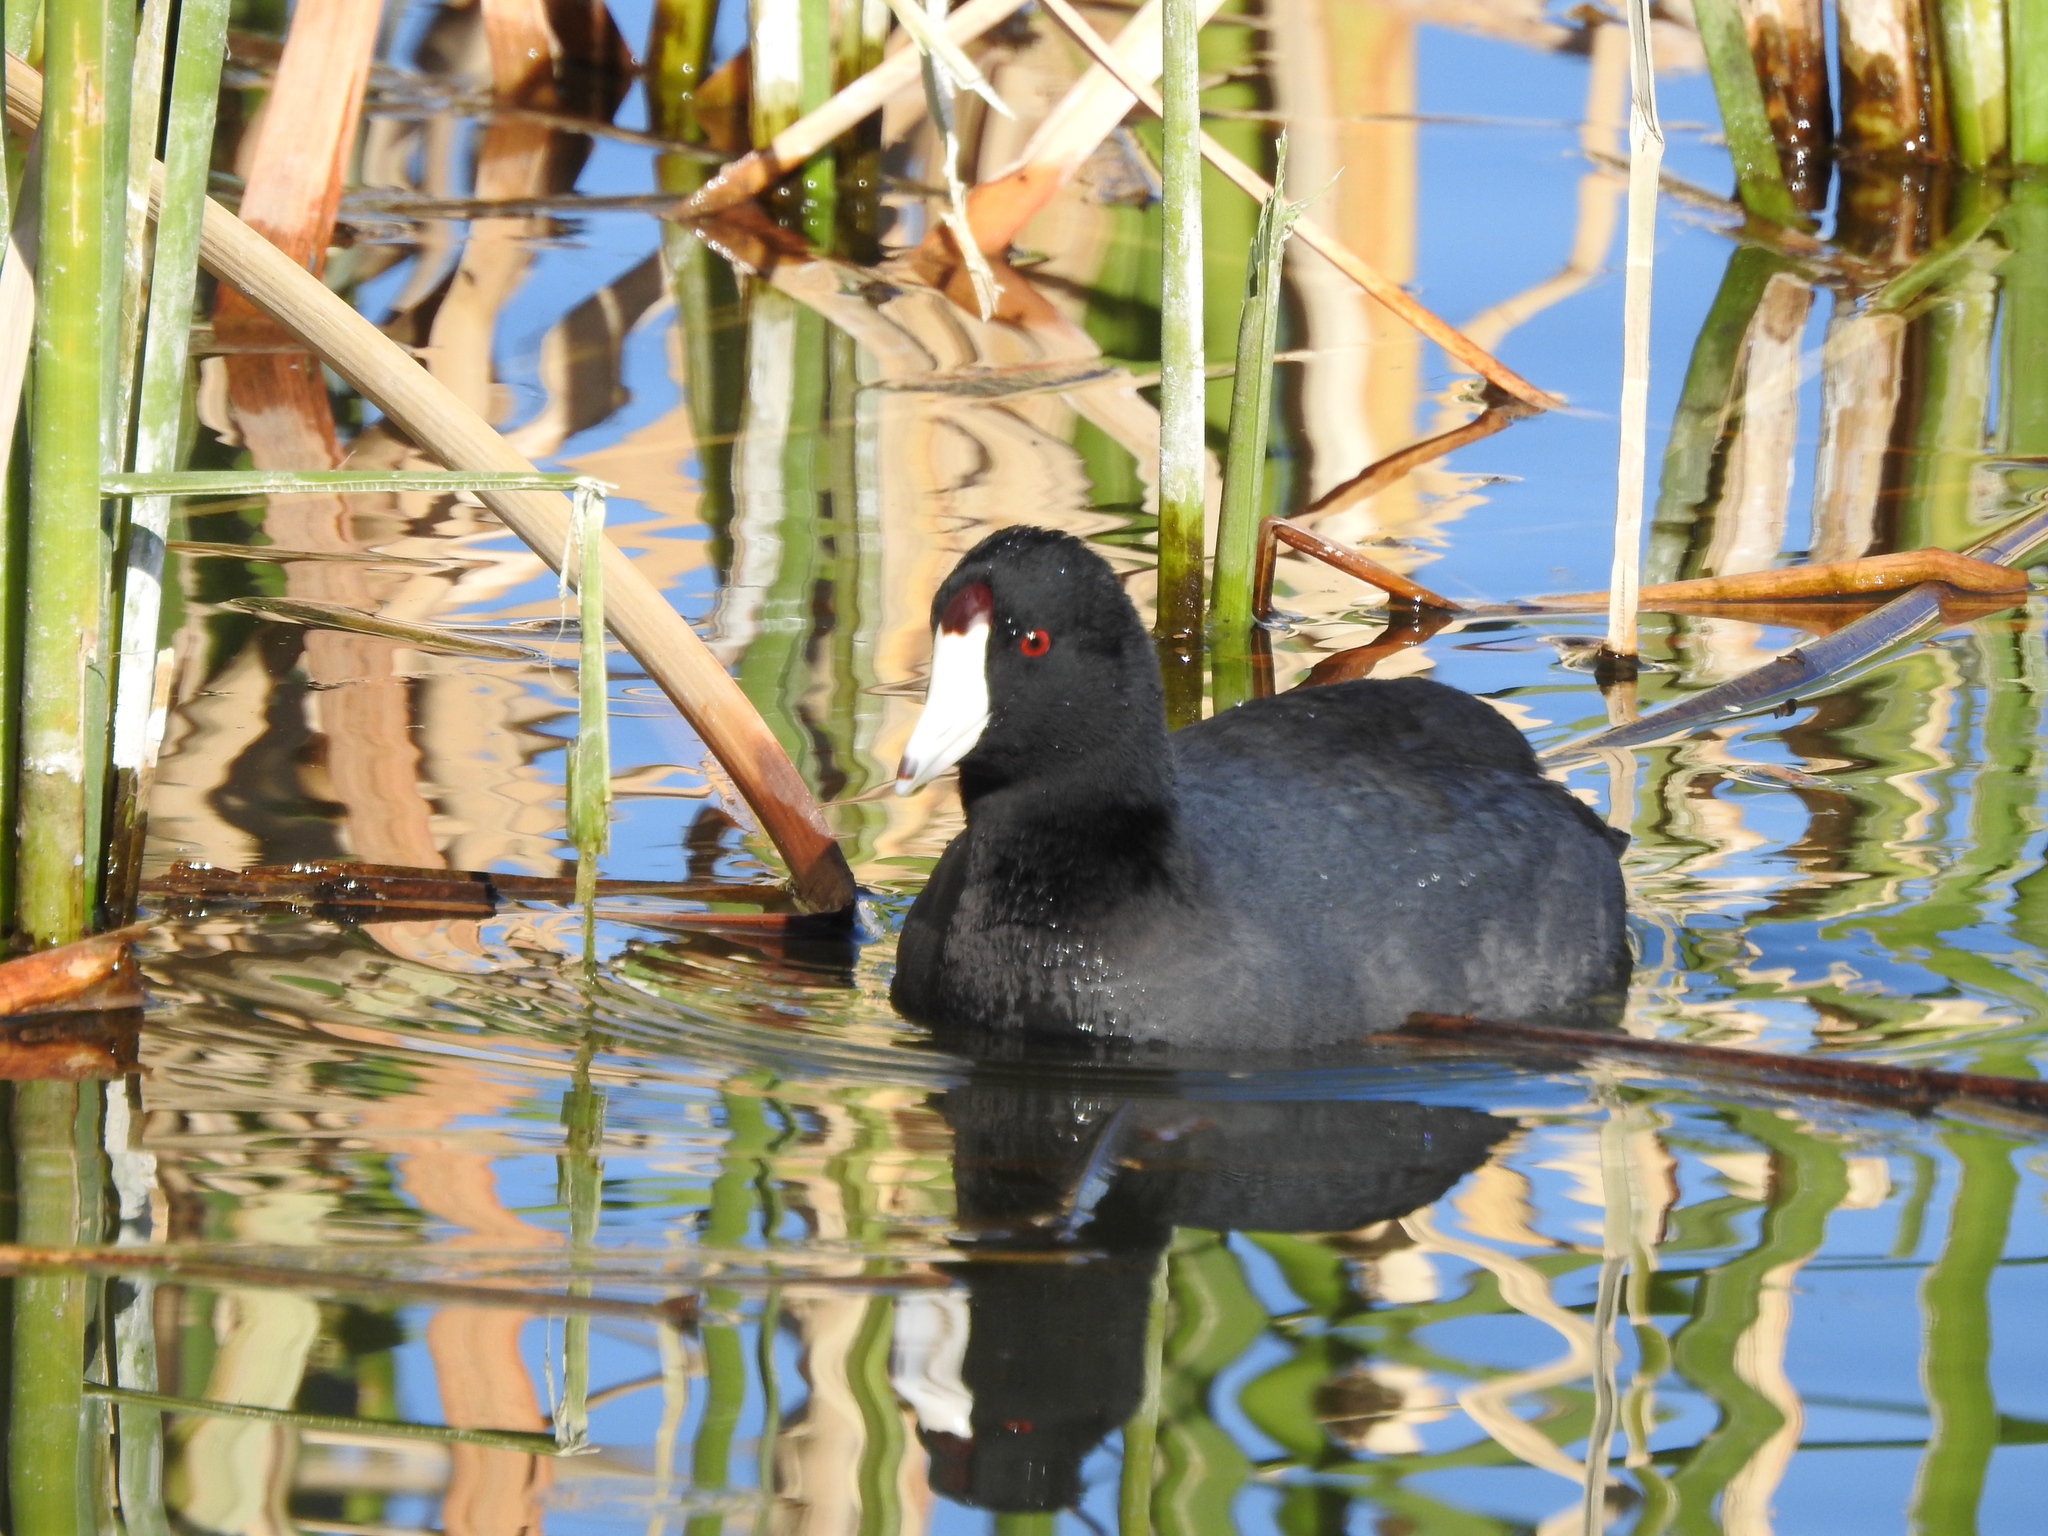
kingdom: Animalia
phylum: Chordata
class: Aves
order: Gruiformes
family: Rallidae
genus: Fulica
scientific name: Fulica americana
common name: American coot
